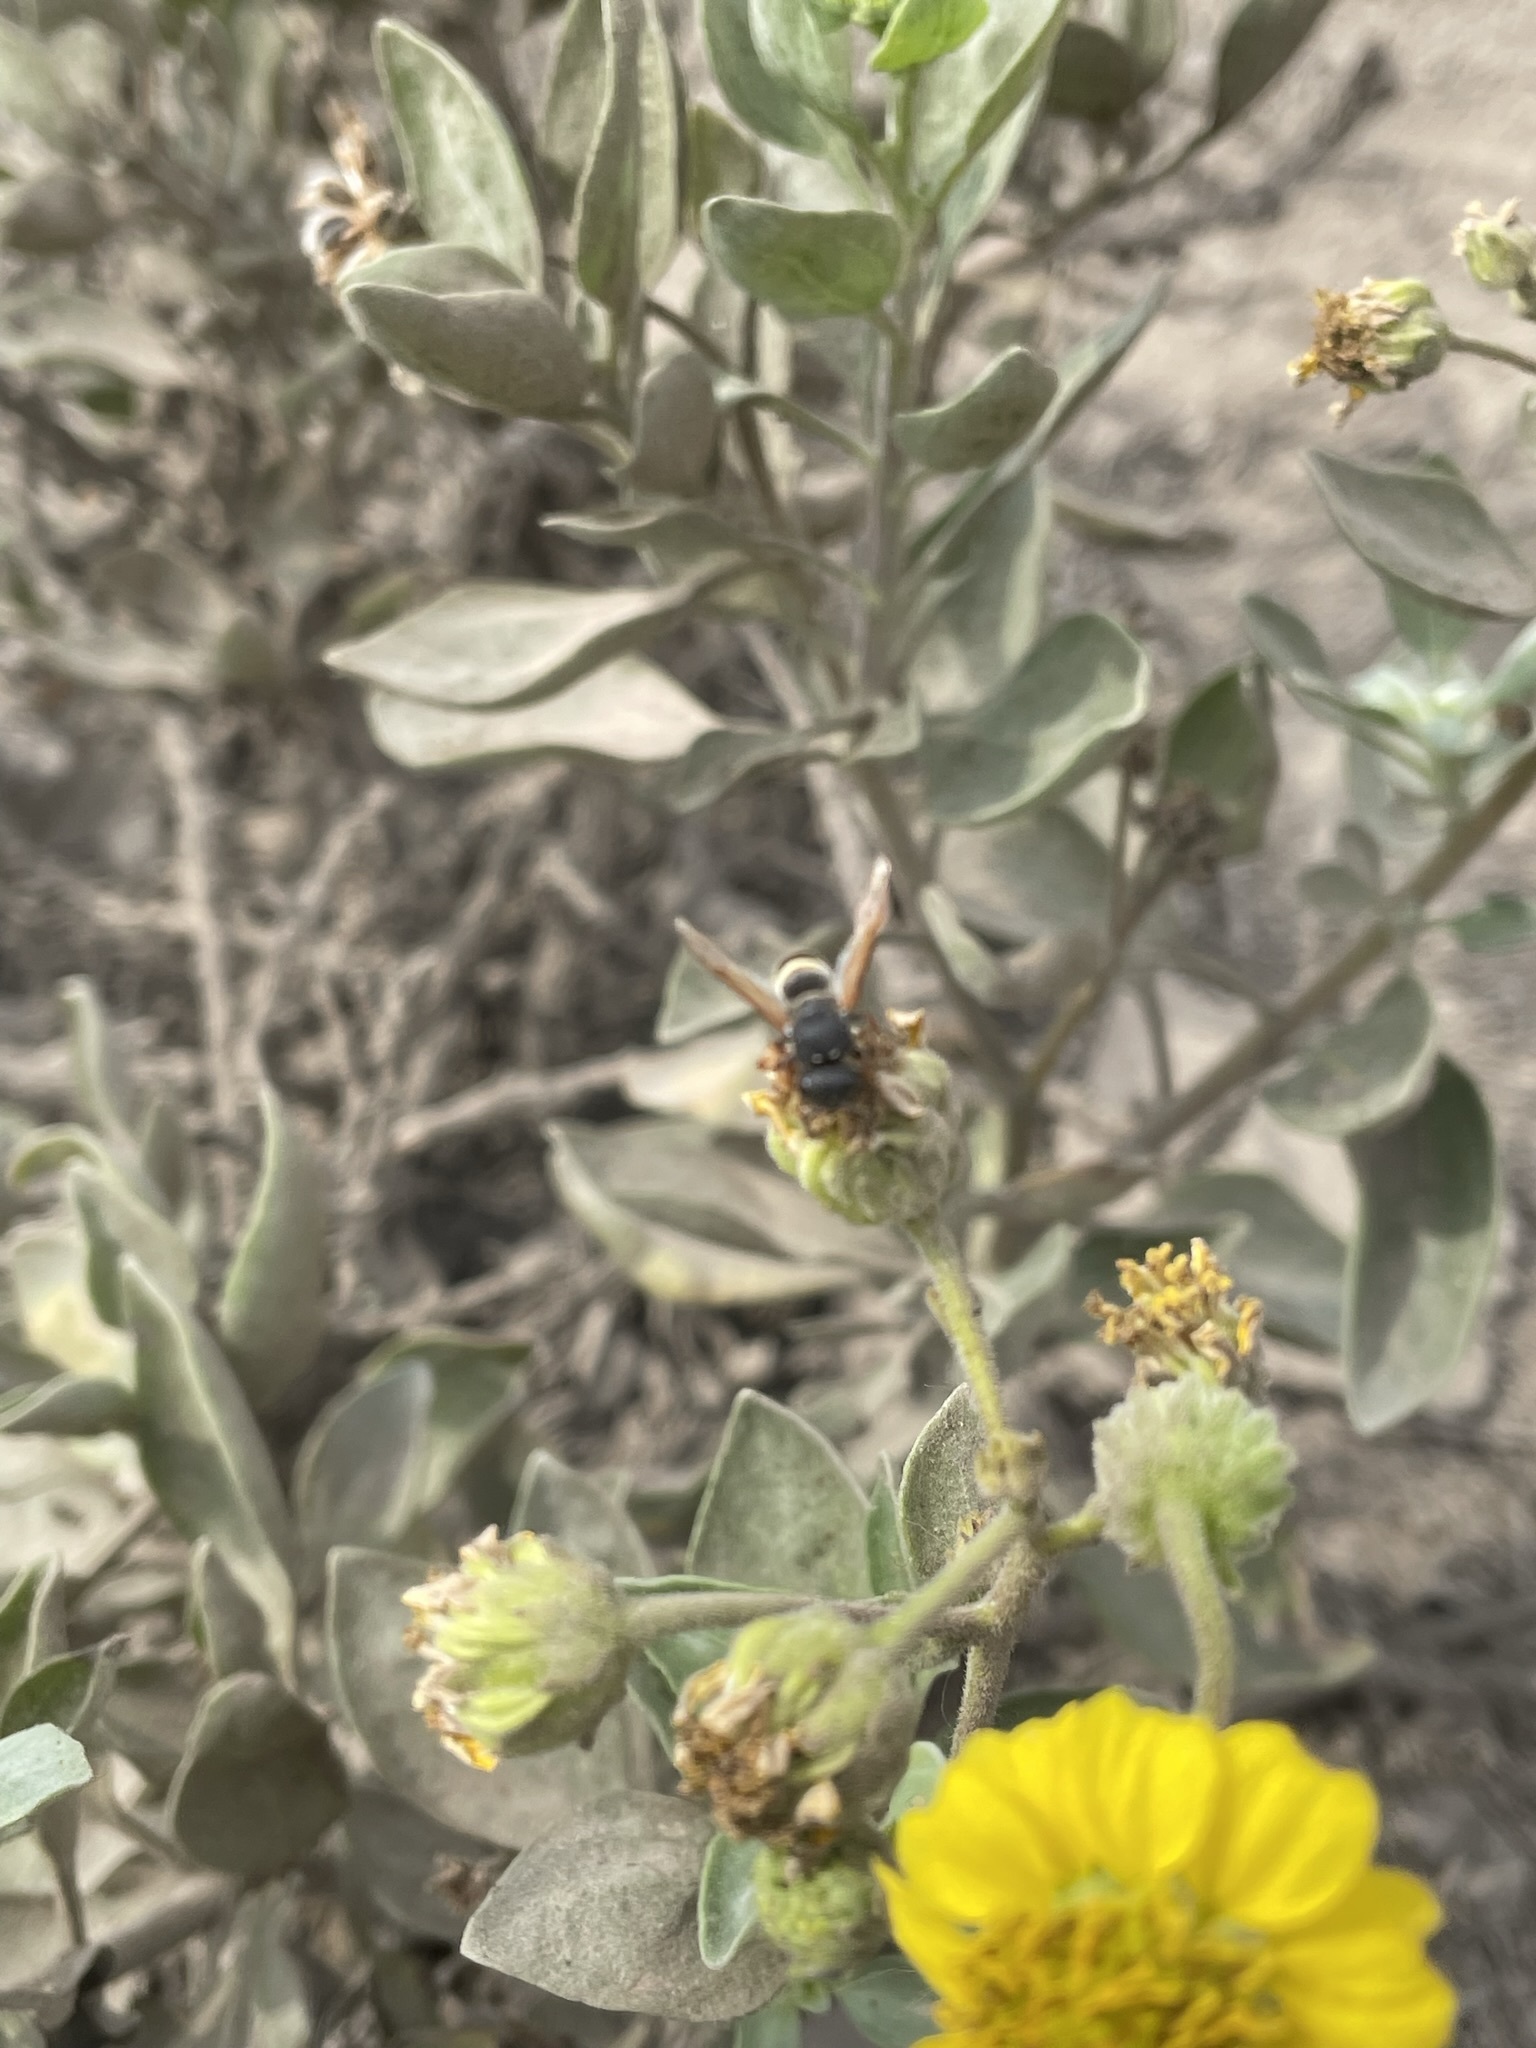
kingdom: Animalia
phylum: Arthropoda
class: Insecta
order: Hymenoptera
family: Eumenidae
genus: Pachodynerus
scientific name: Pachodynerus peruensis
